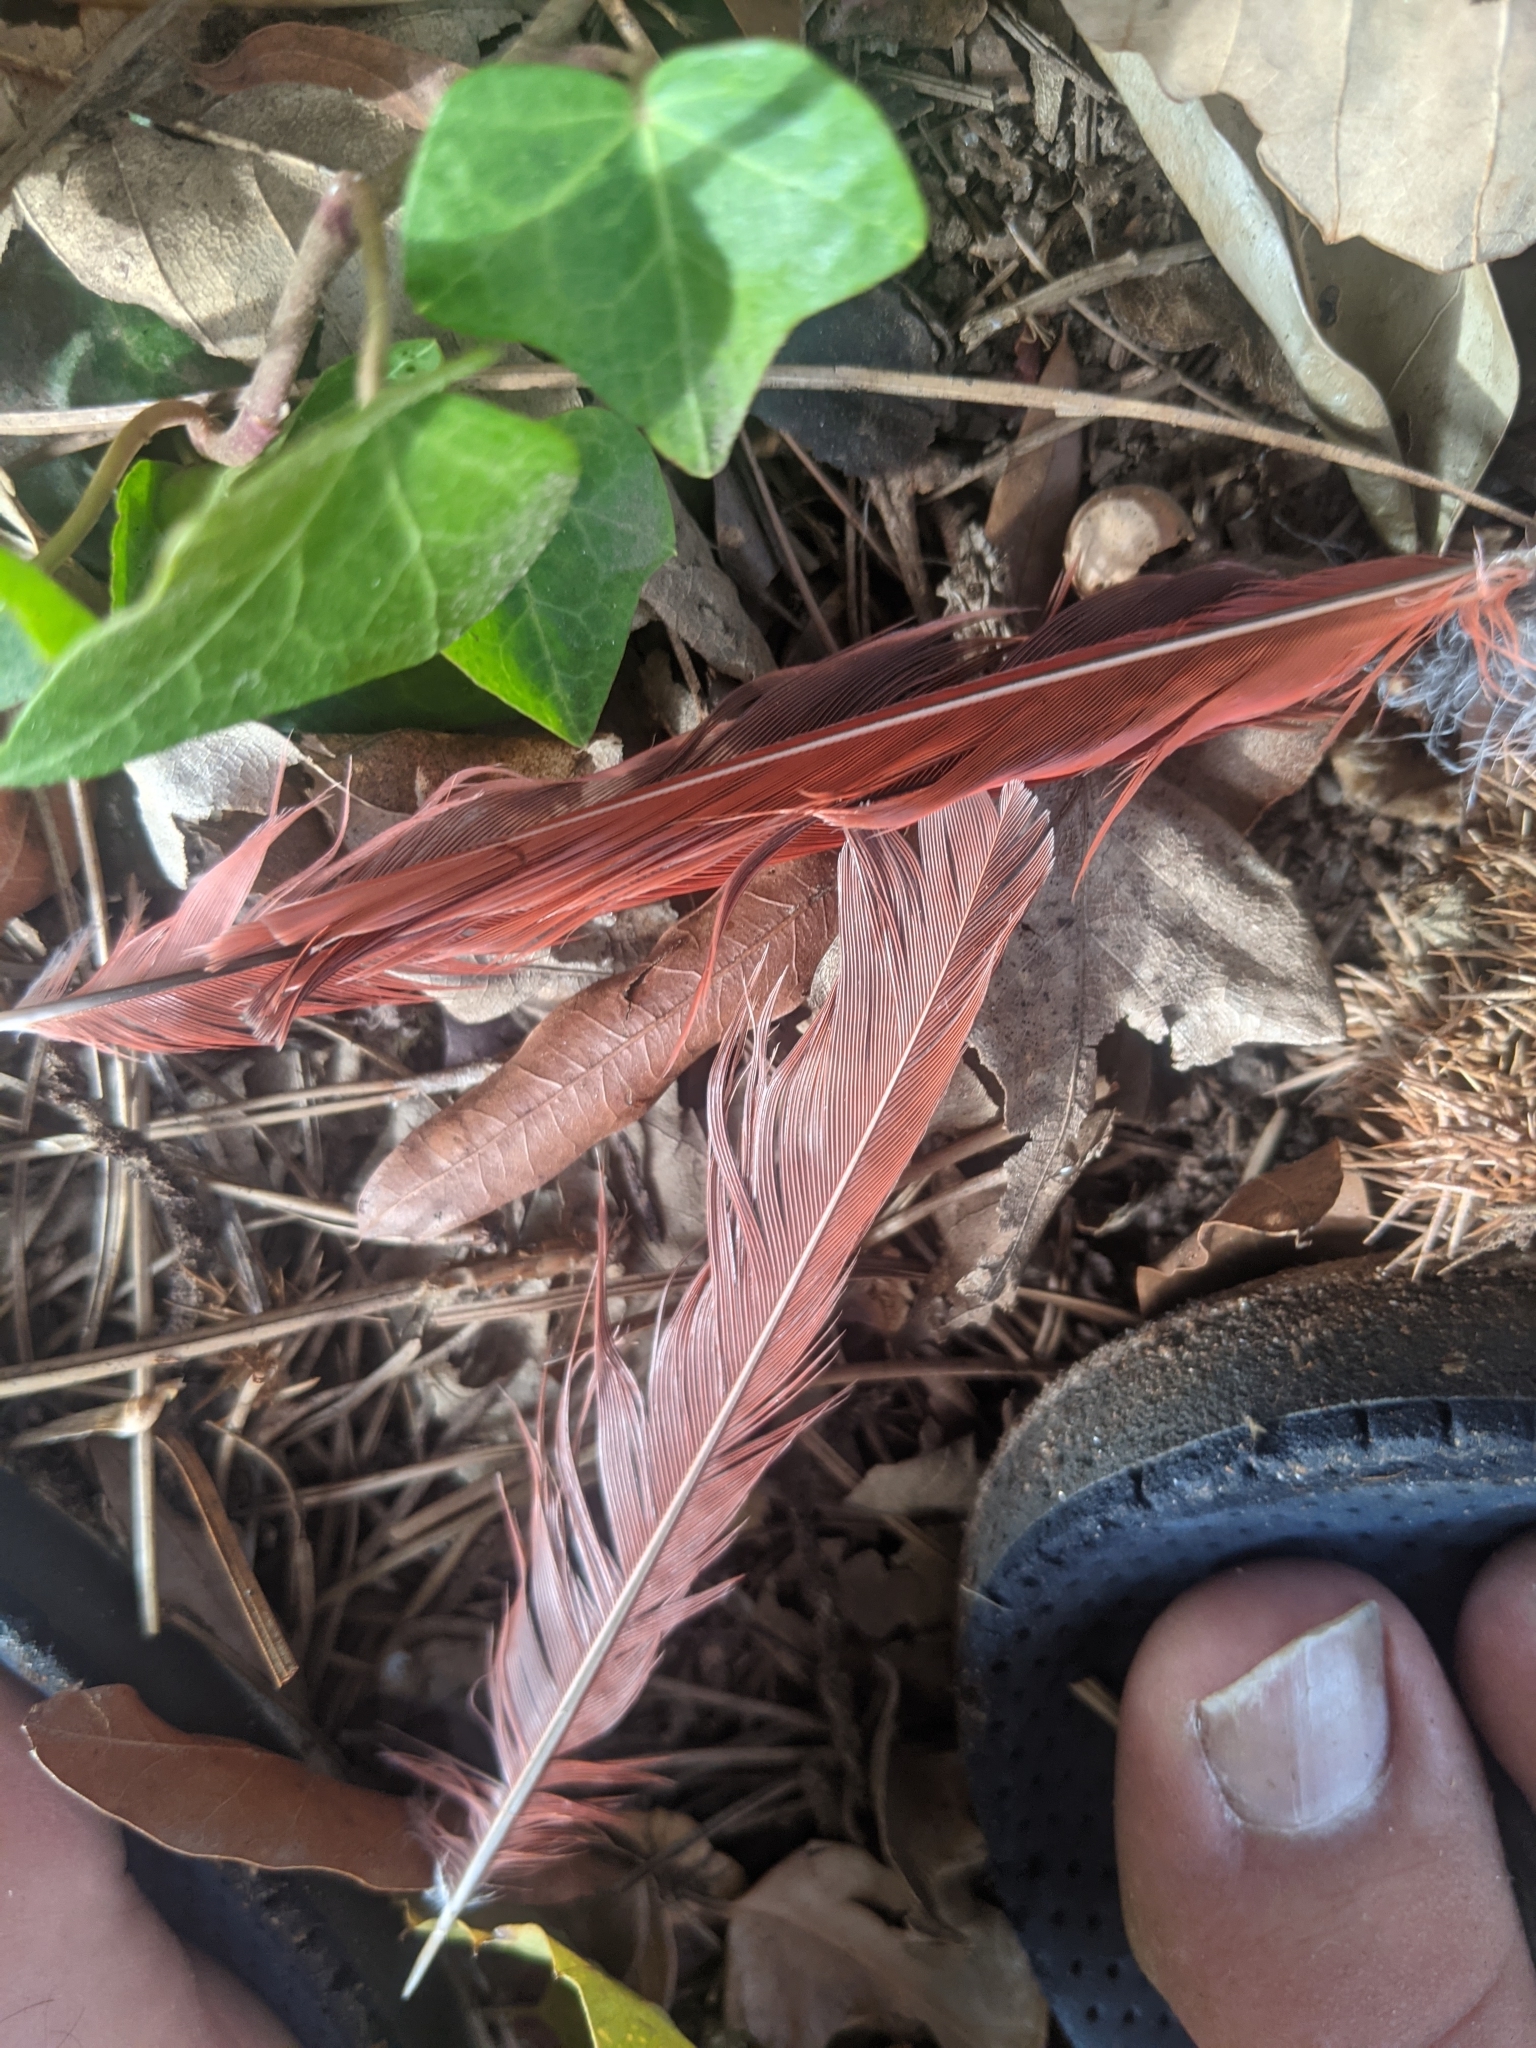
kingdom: Animalia
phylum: Chordata
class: Aves
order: Passeriformes
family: Cardinalidae
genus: Cardinalis
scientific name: Cardinalis cardinalis
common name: Northern cardinal
